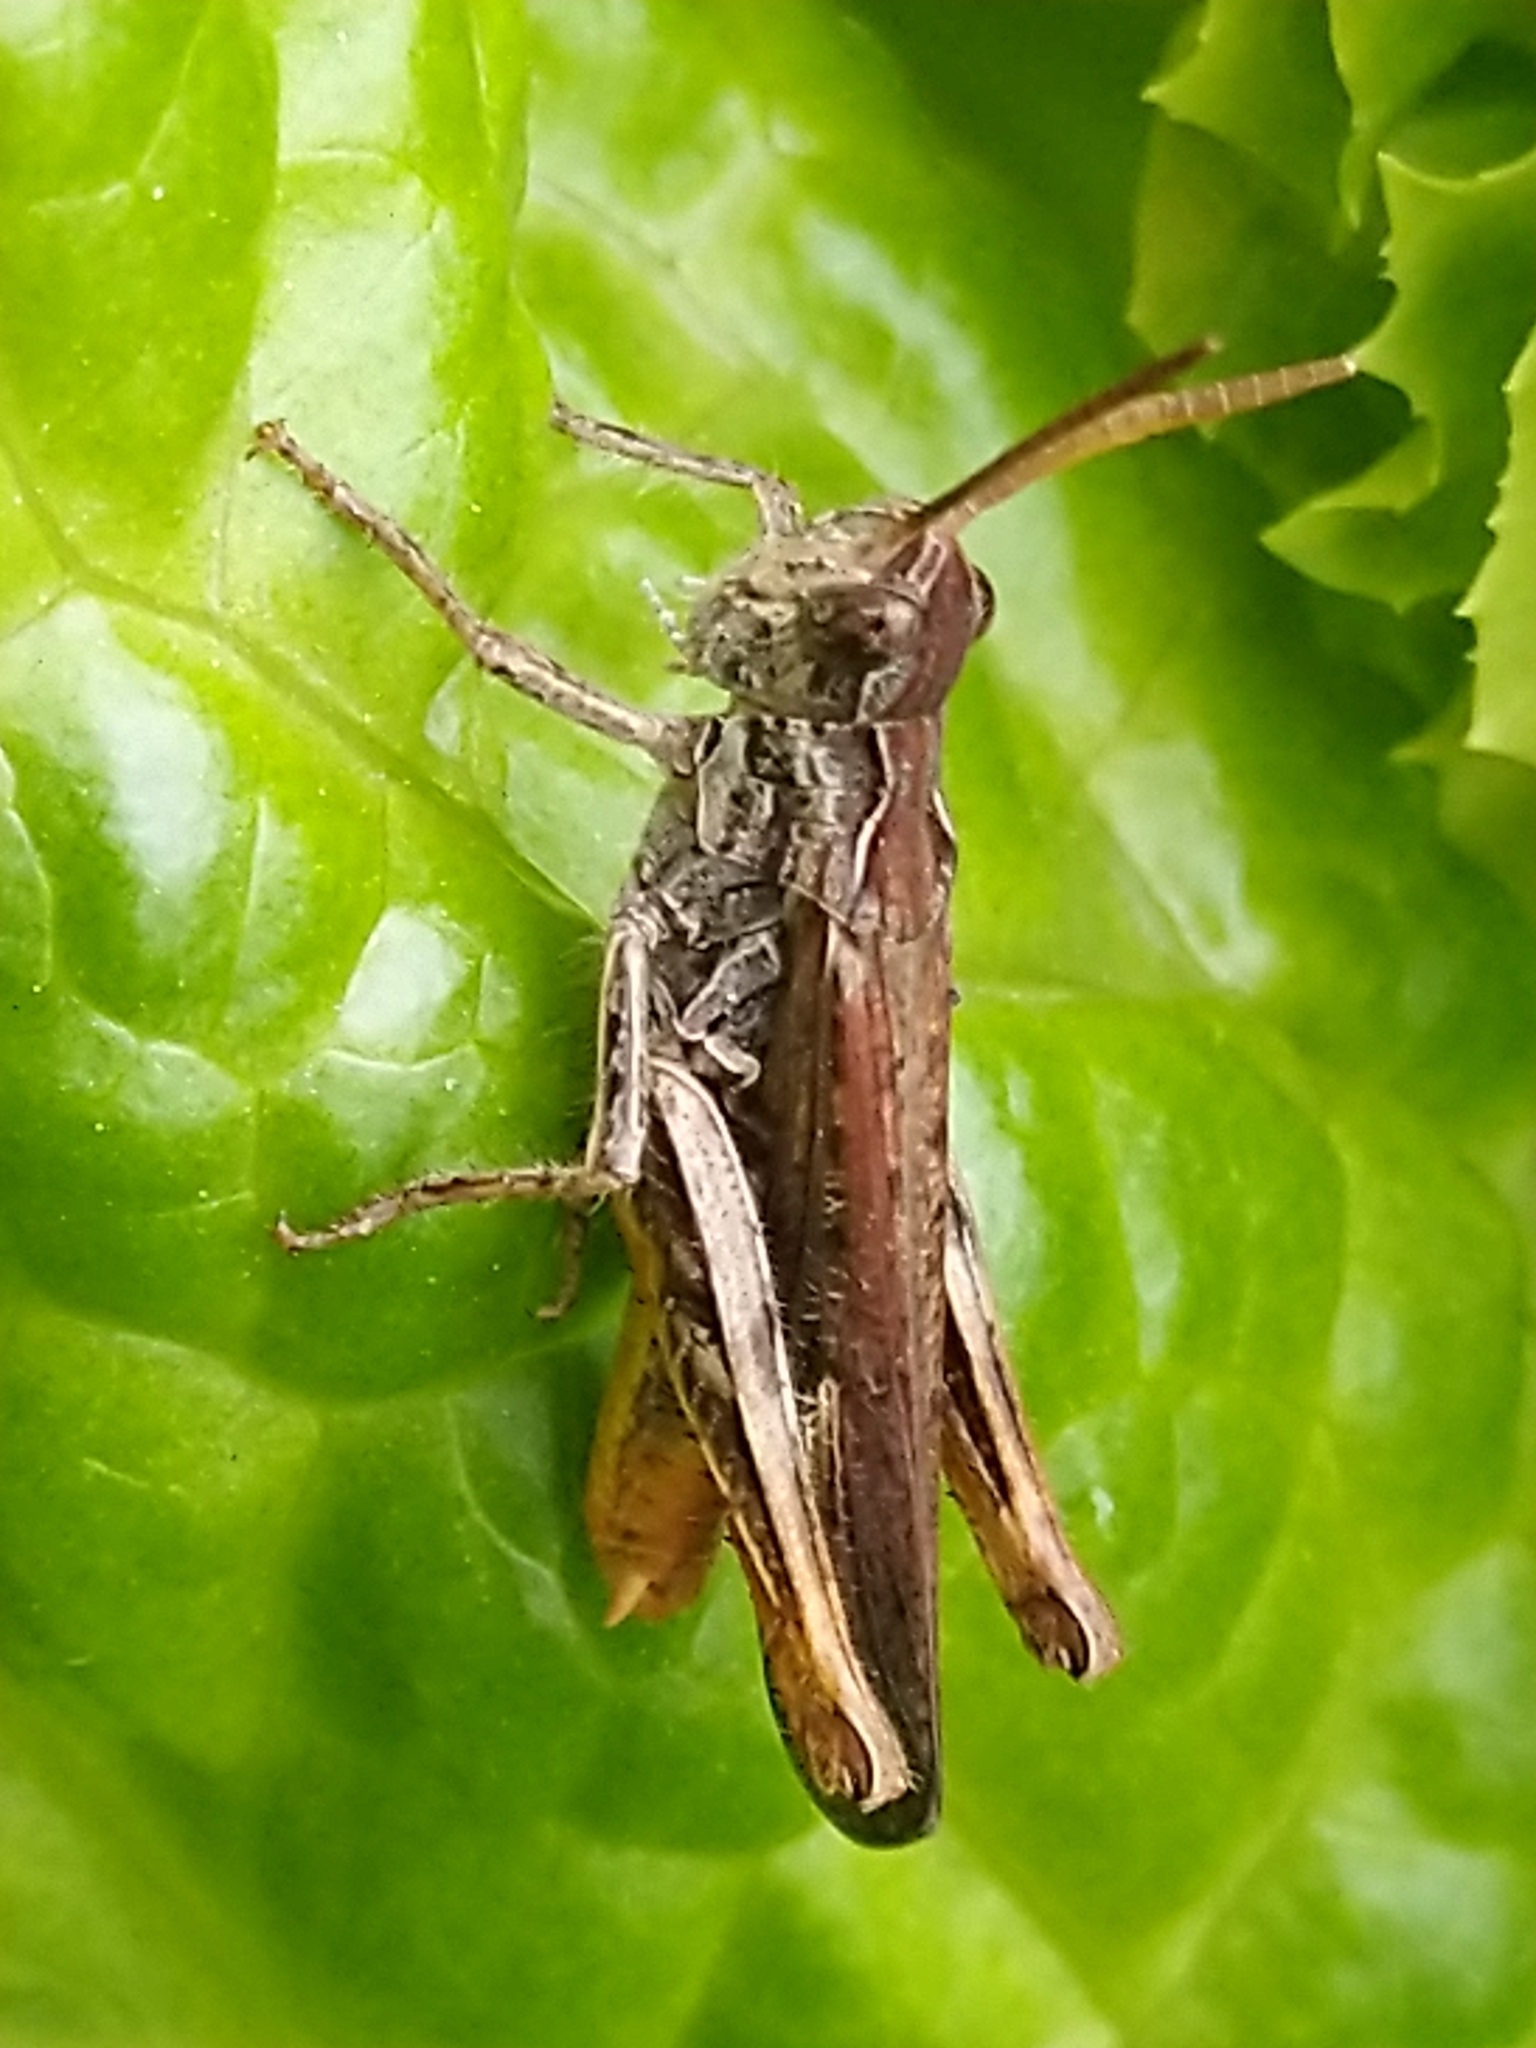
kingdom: Animalia
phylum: Arthropoda
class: Insecta
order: Orthoptera
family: Acrididae
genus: Chorthippus
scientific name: Chorthippus brunneus
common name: Field grasshopper
